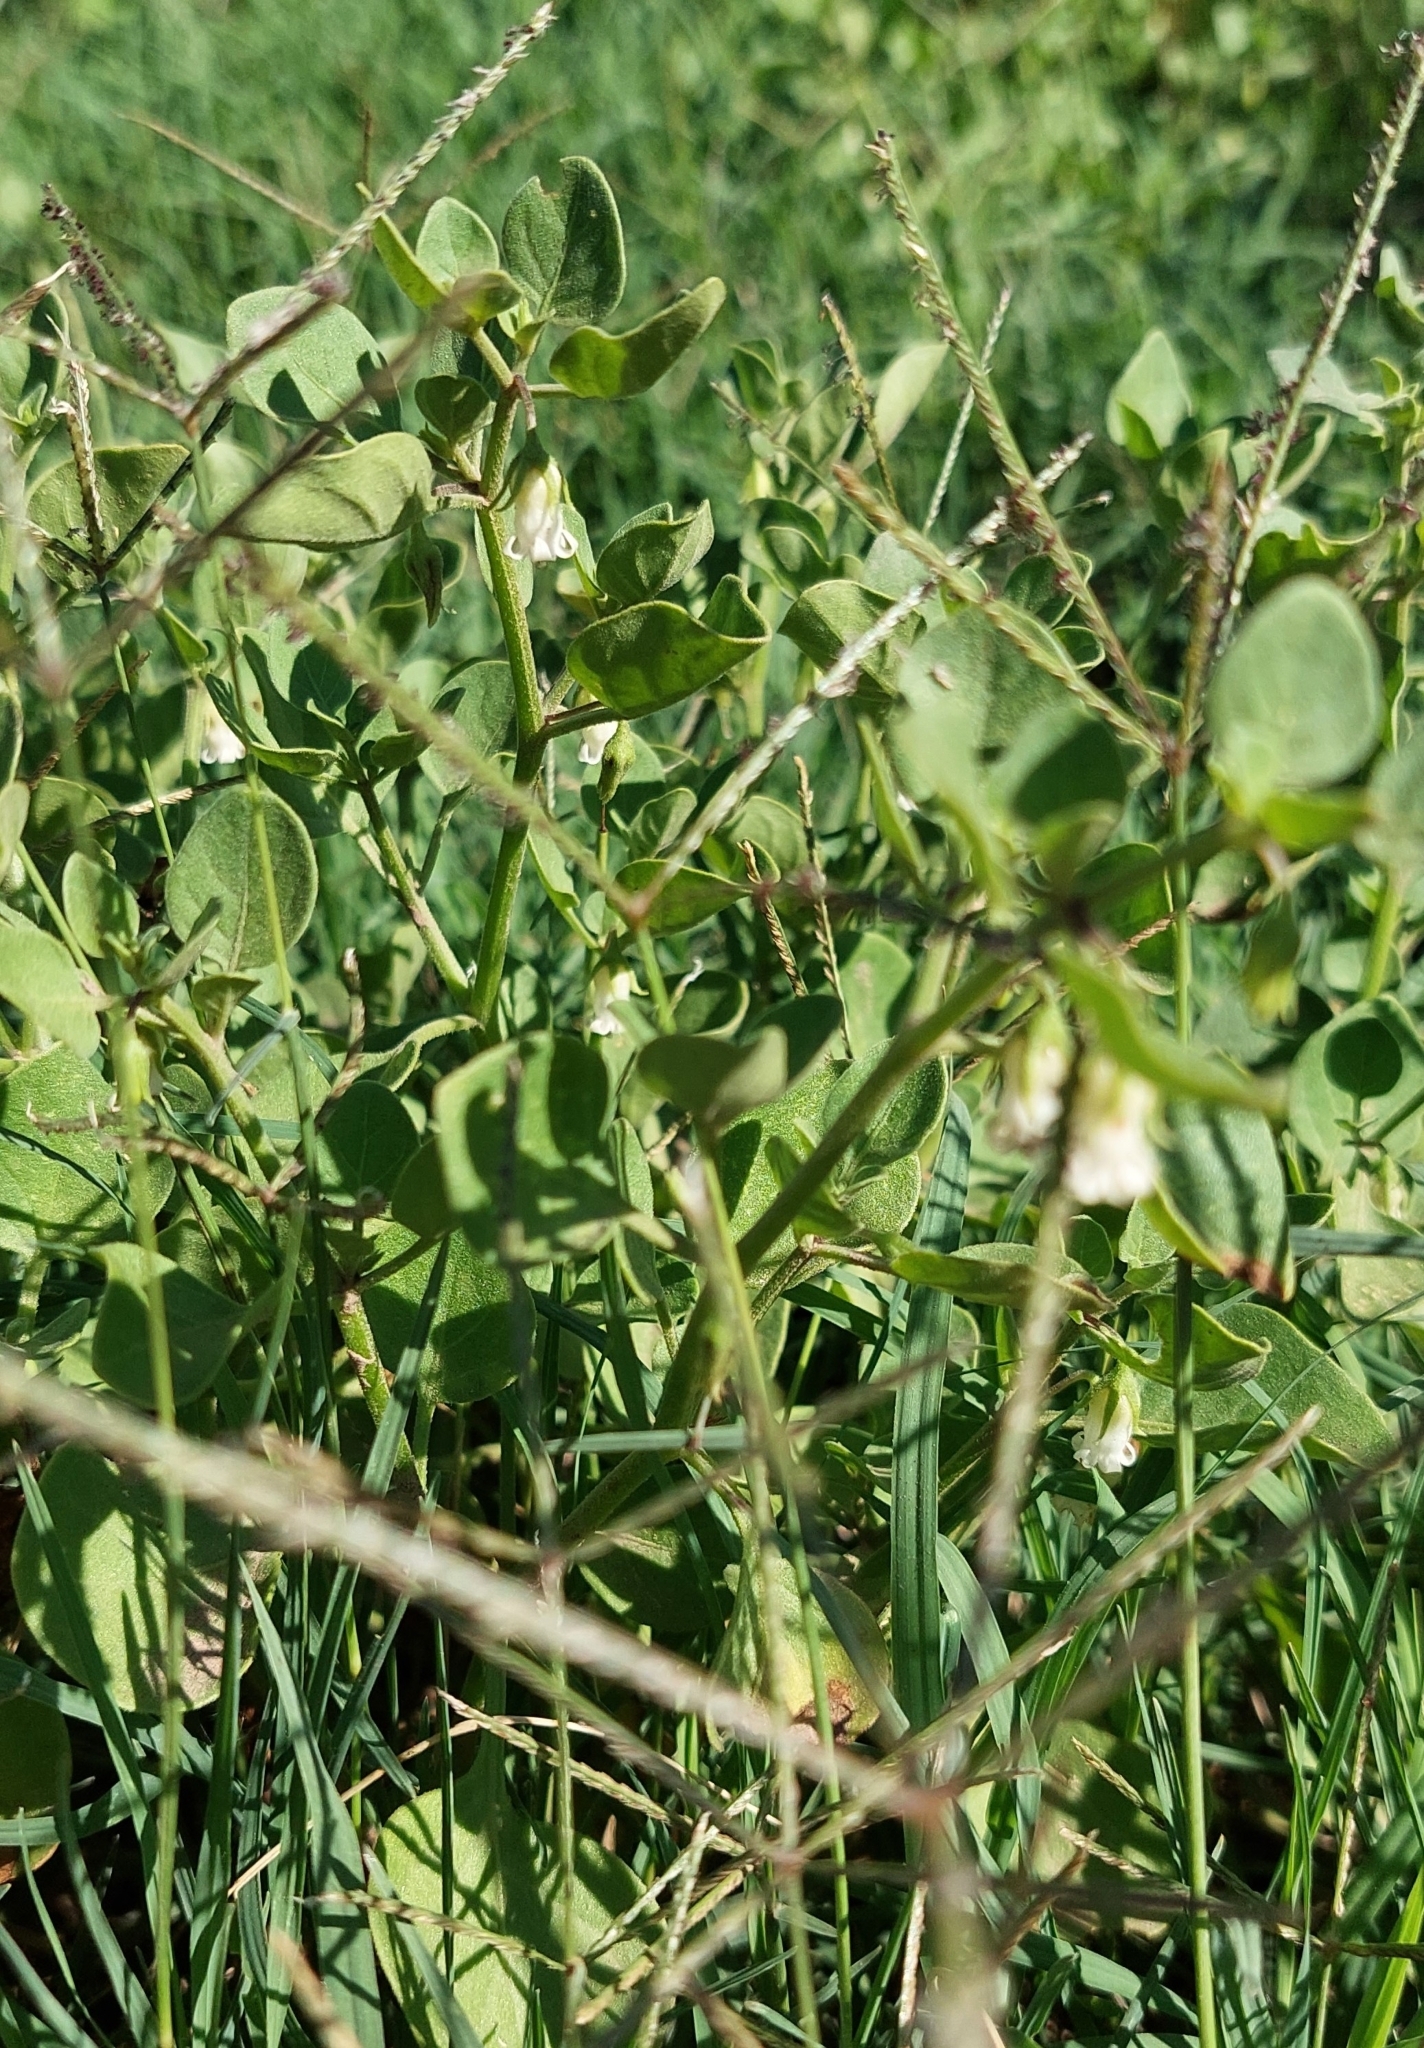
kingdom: Plantae
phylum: Tracheophyta
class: Magnoliopsida
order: Solanales
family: Solanaceae
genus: Salpichroa
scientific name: Salpichroa origanifolia
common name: Lily-of-the-valley-vine
